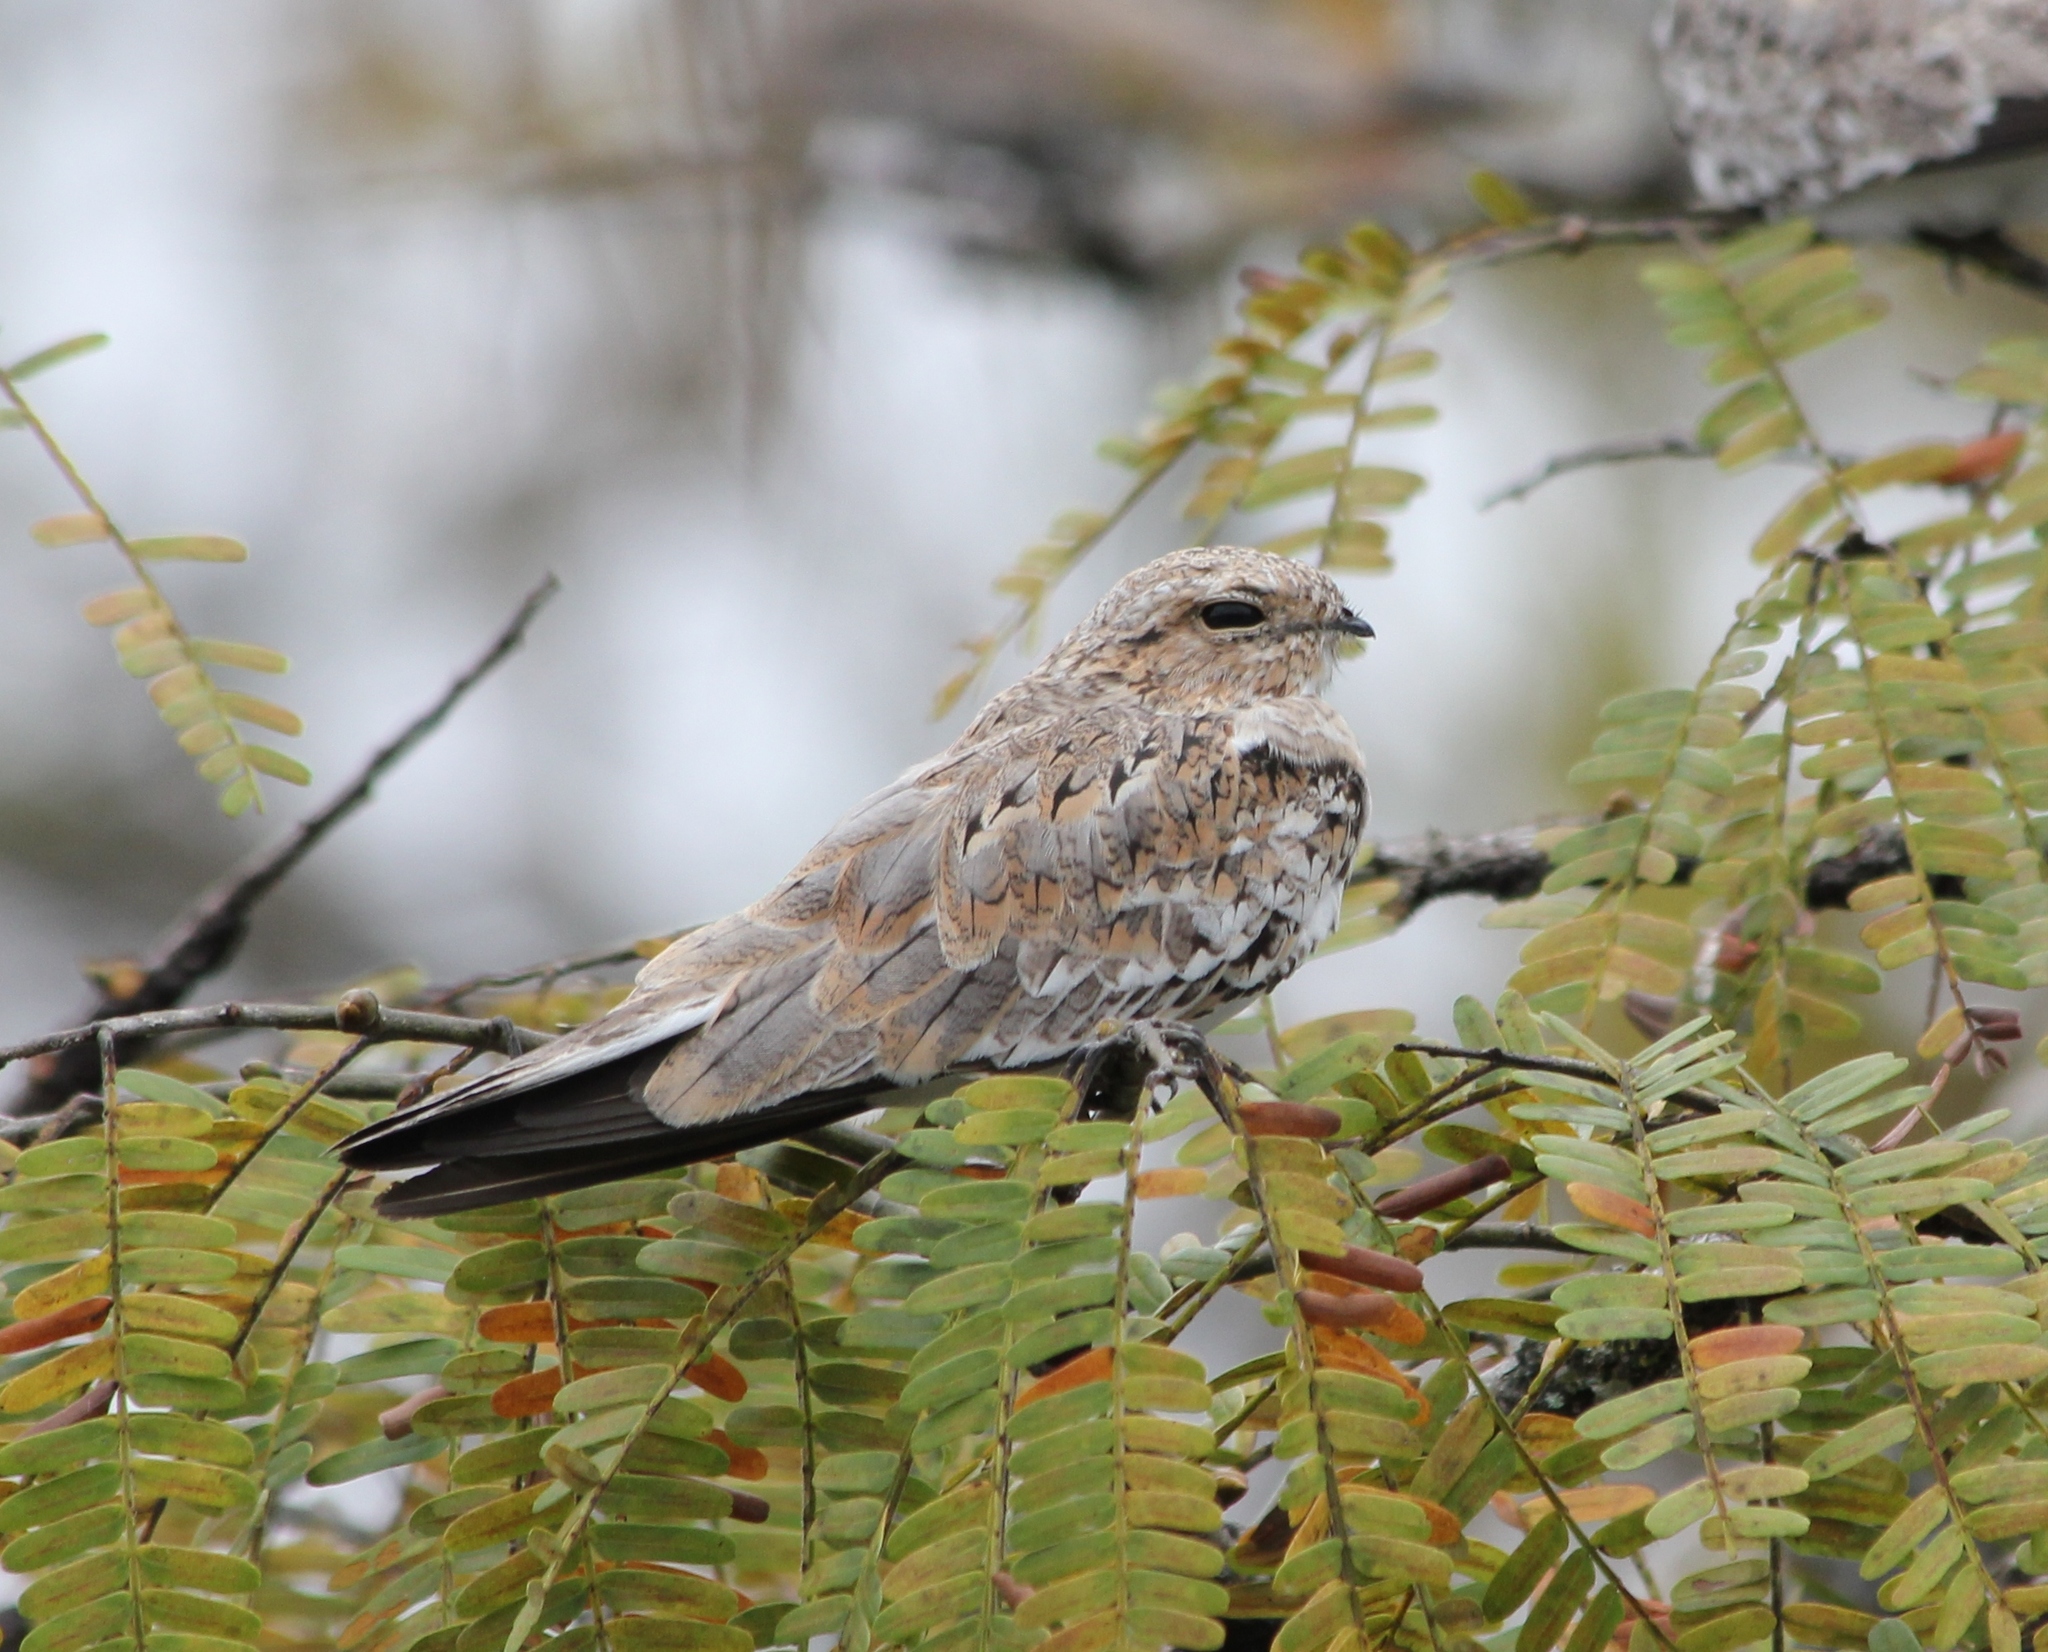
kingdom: Animalia
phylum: Chordata
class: Aves
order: Caprimulgiformes
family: Caprimulgidae
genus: Chordeiles
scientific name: Chordeiles rupestris
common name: Sand-colored nighthawk
